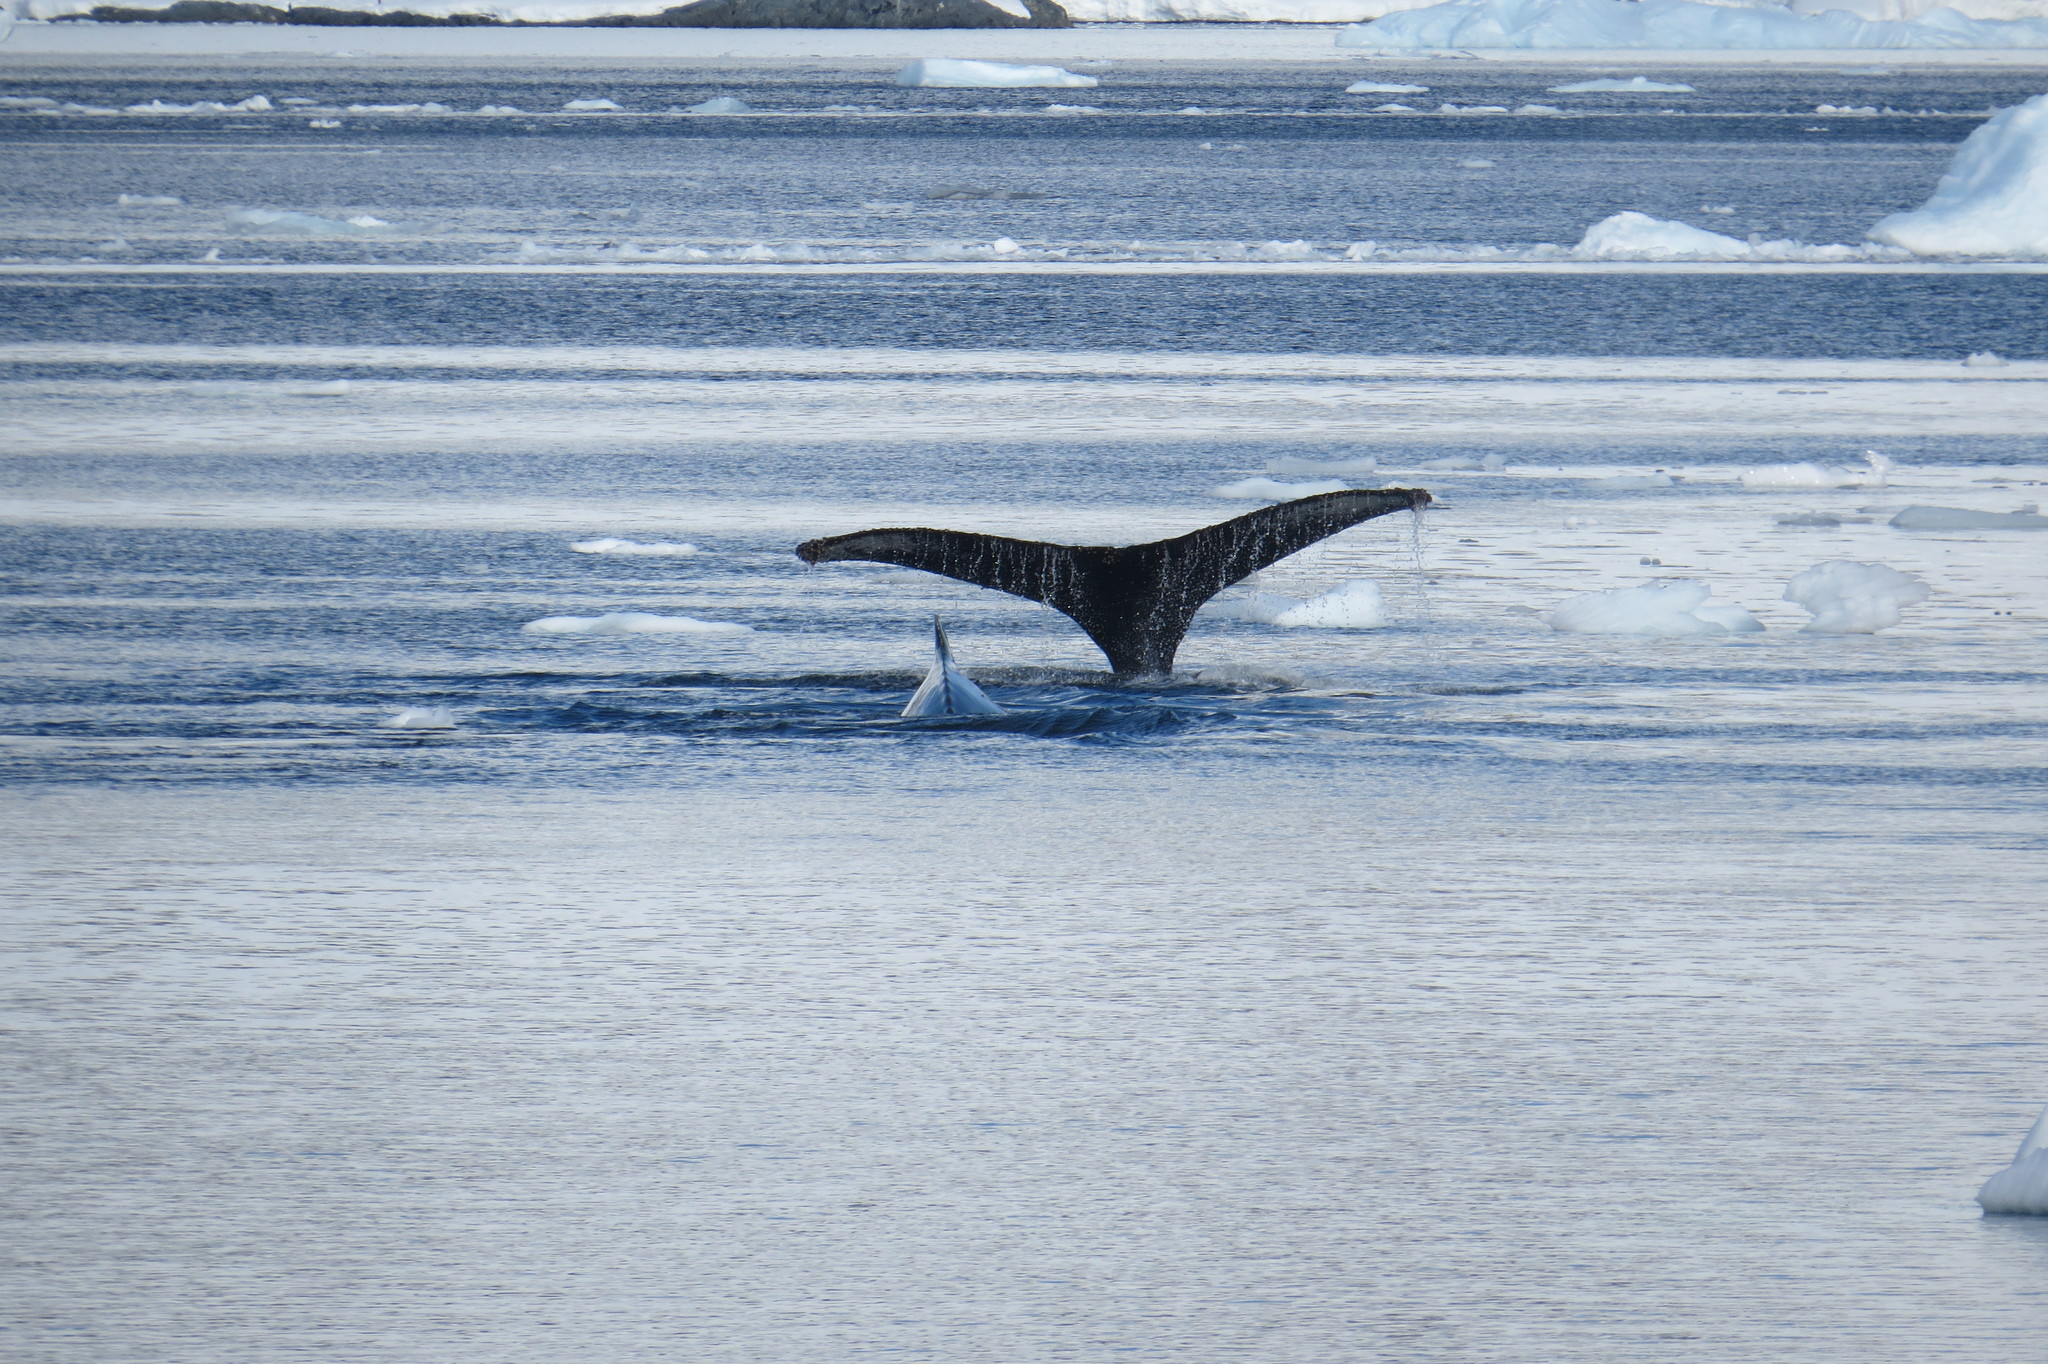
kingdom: Animalia
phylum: Chordata
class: Mammalia
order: Cetacea
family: Balaenopteridae
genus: Megaptera
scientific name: Megaptera novaeangliae
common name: Humpback whale
